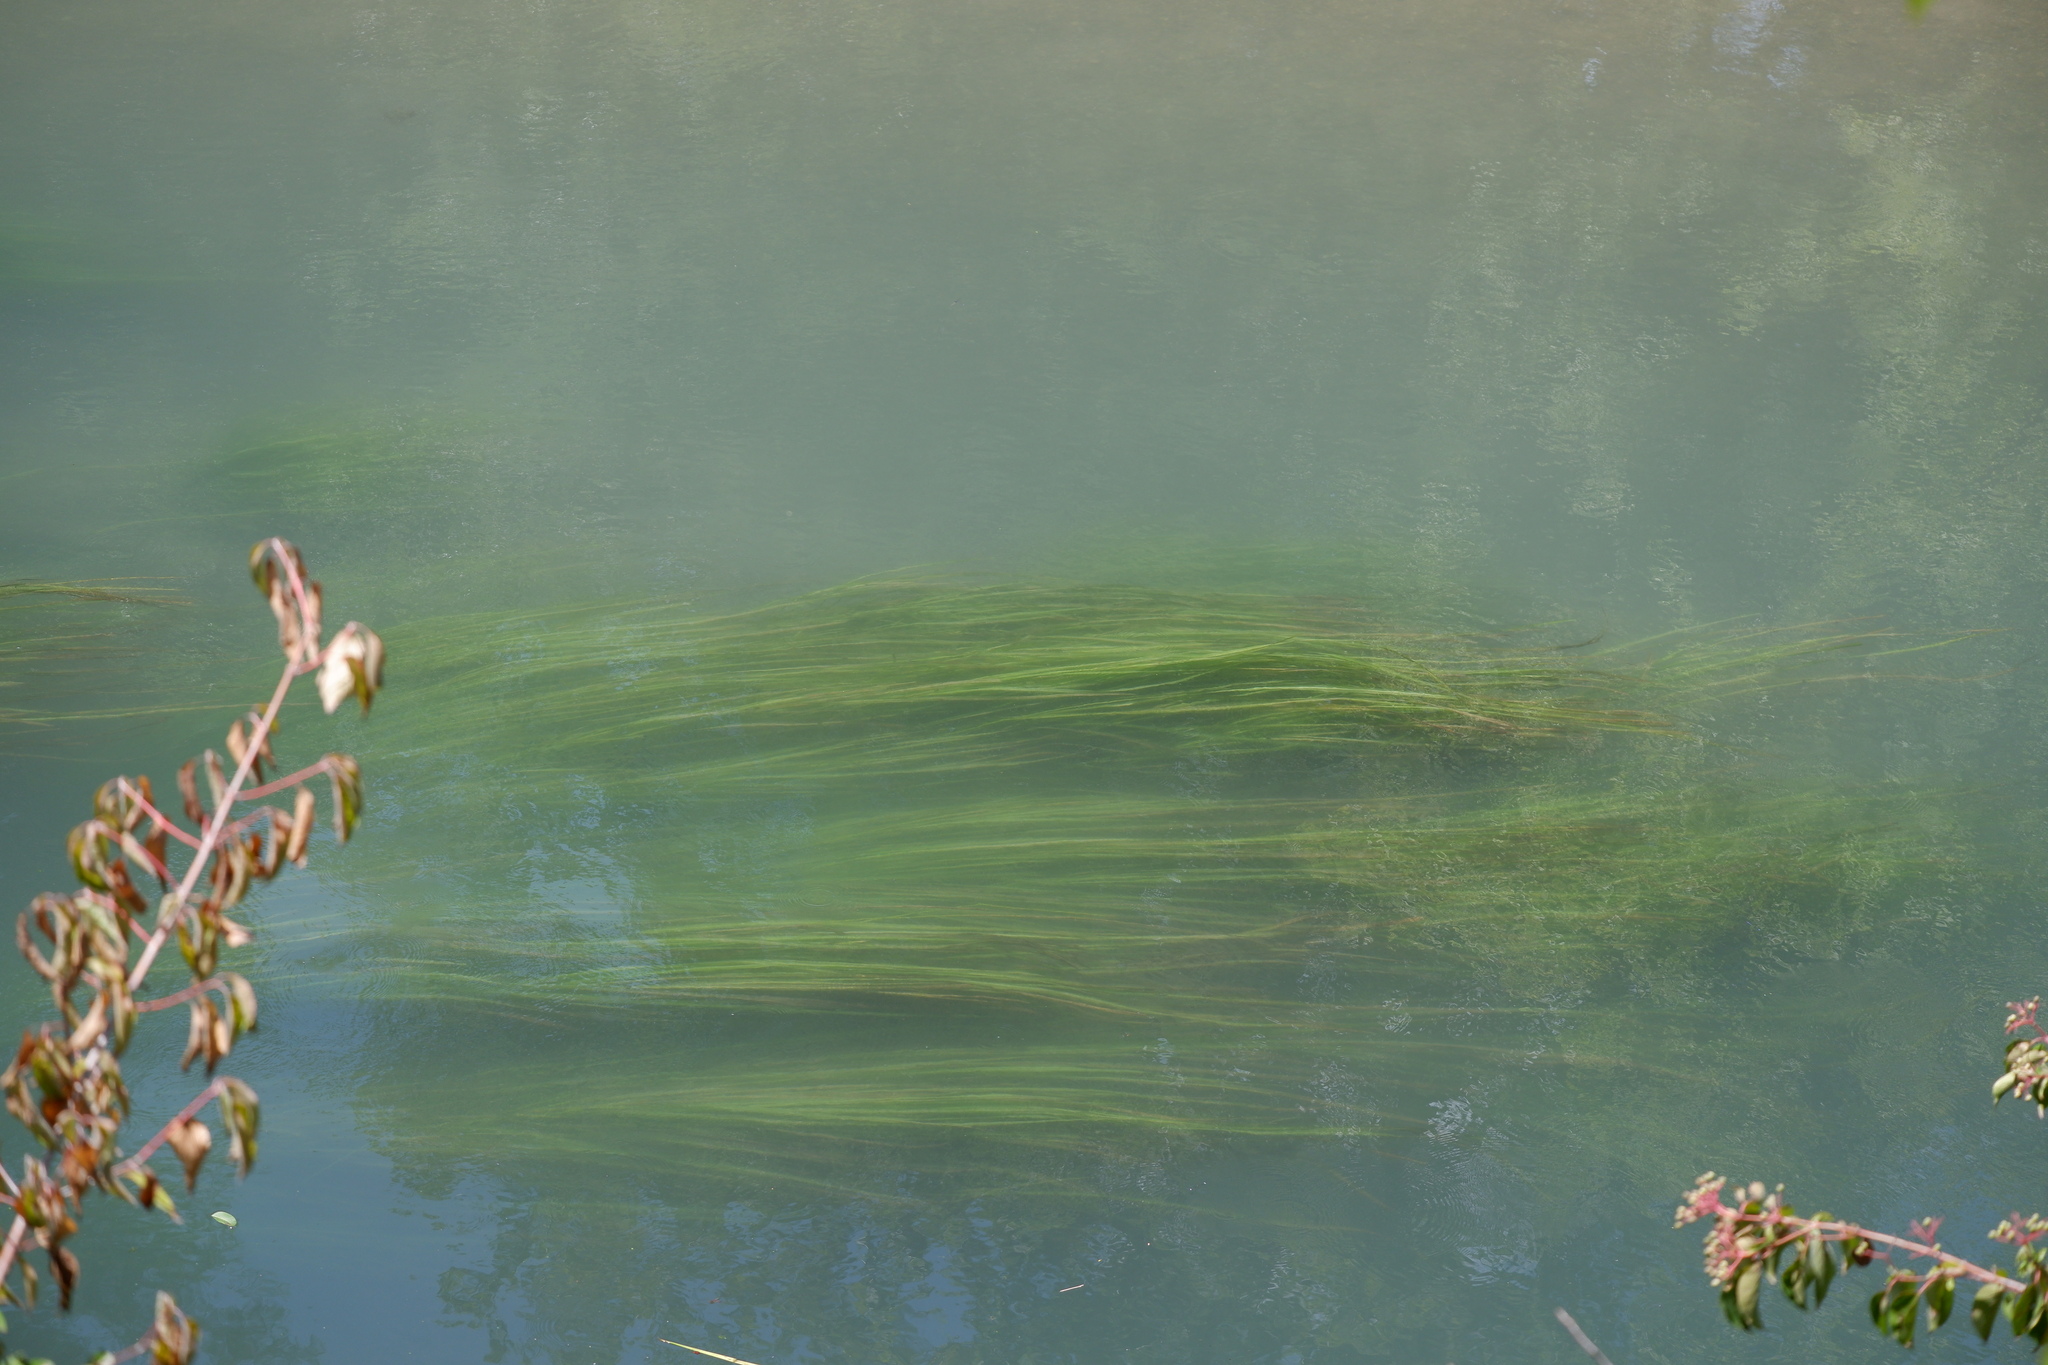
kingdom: Plantae
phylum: Tracheophyta
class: Liliopsida
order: Poales
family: Poaceae
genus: Zizania
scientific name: Zizania texana
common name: Texas wild rice
